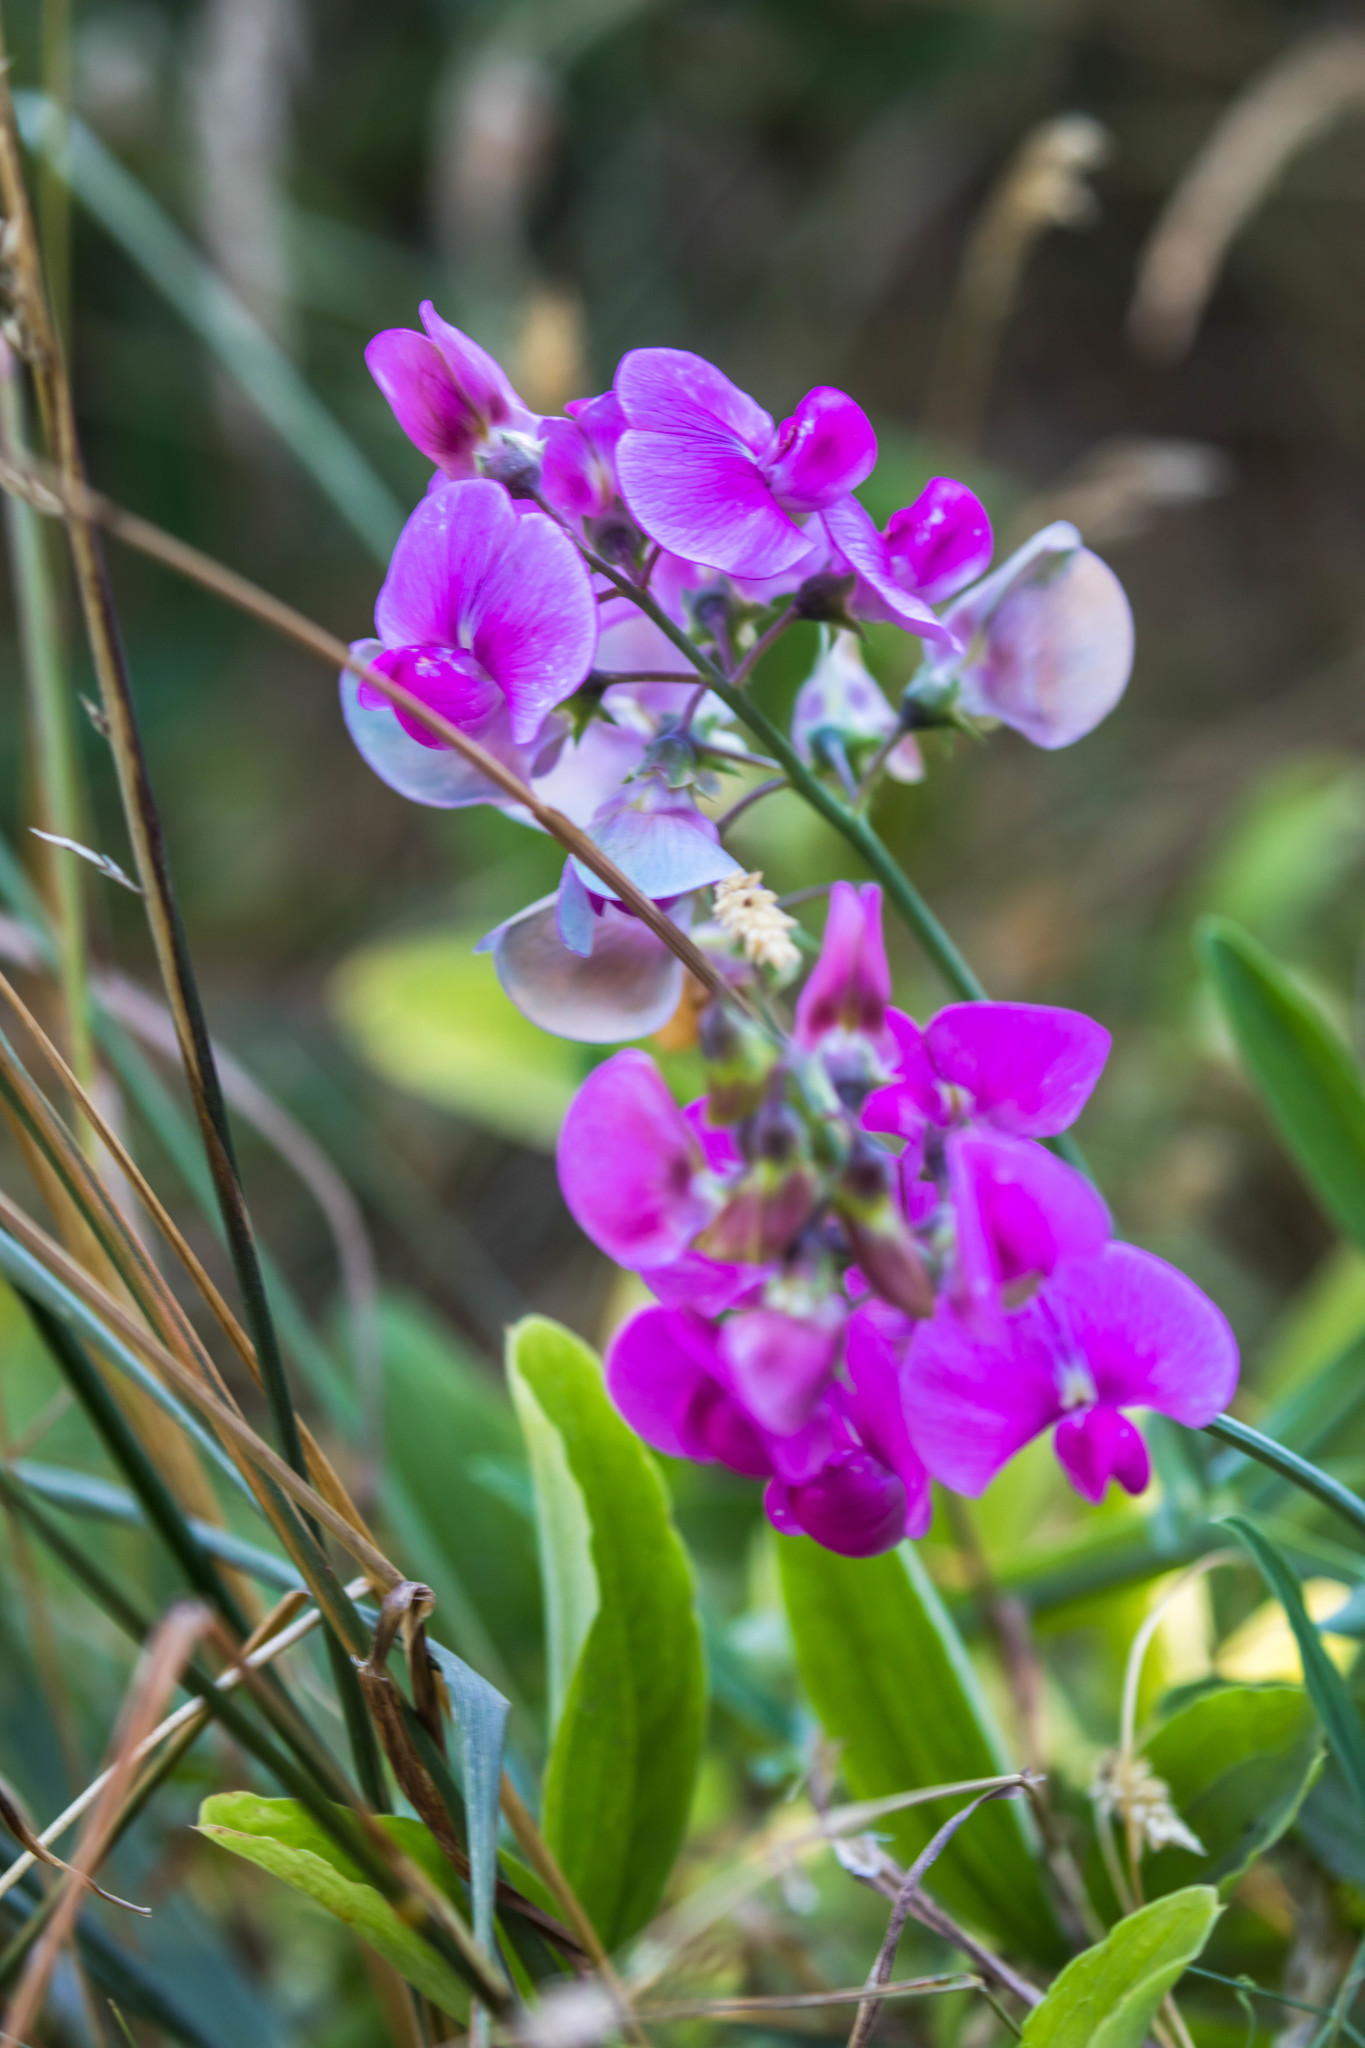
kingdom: Plantae
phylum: Tracheophyta
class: Magnoliopsida
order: Fabales
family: Fabaceae
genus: Lathyrus
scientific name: Lathyrus latifolius
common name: Perennial pea
